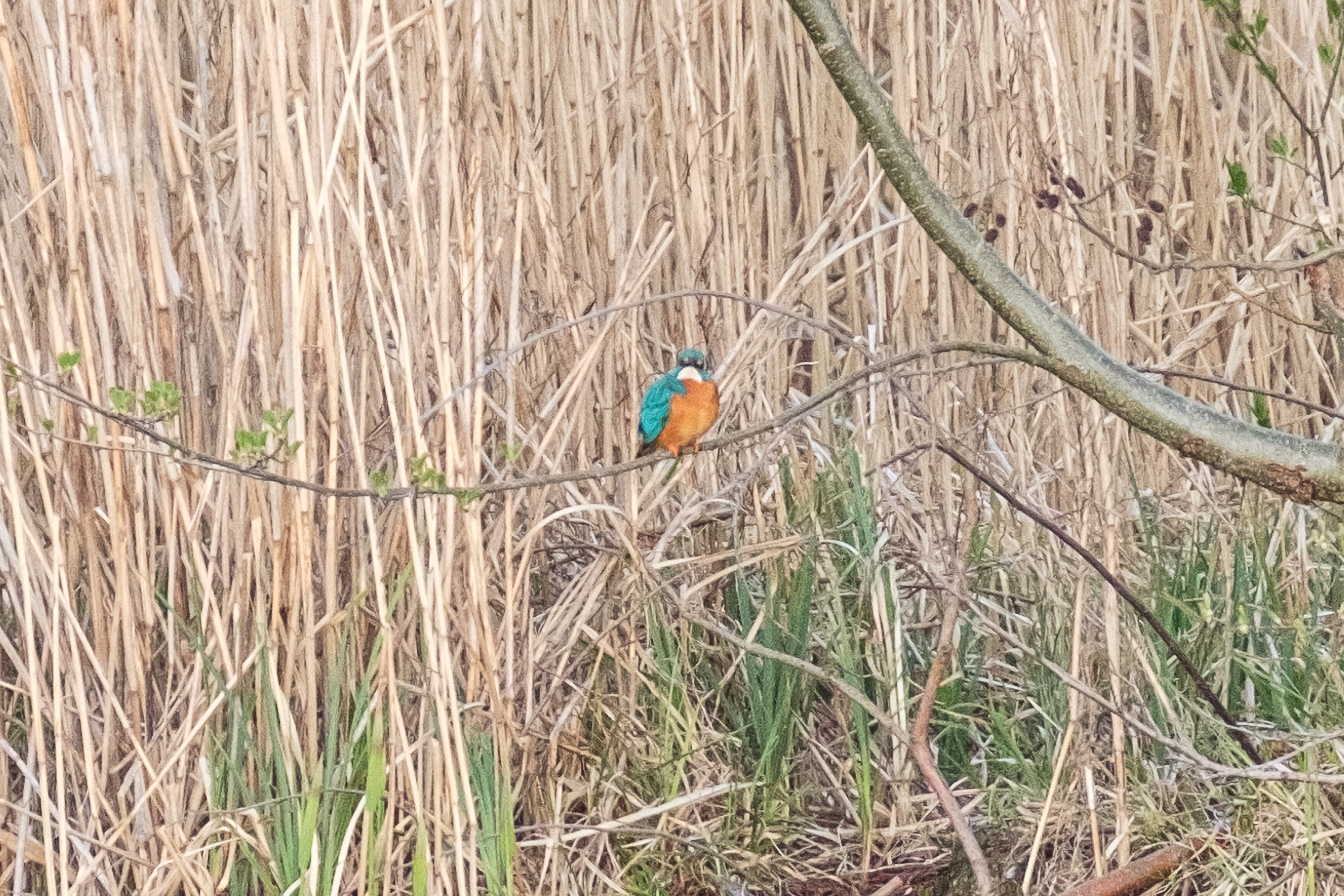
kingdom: Animalia
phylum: Chordata
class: Aves
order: Coraciiformes
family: Alcedinidae
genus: Alcedo
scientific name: Alcedo atthis
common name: Common kingfisher
